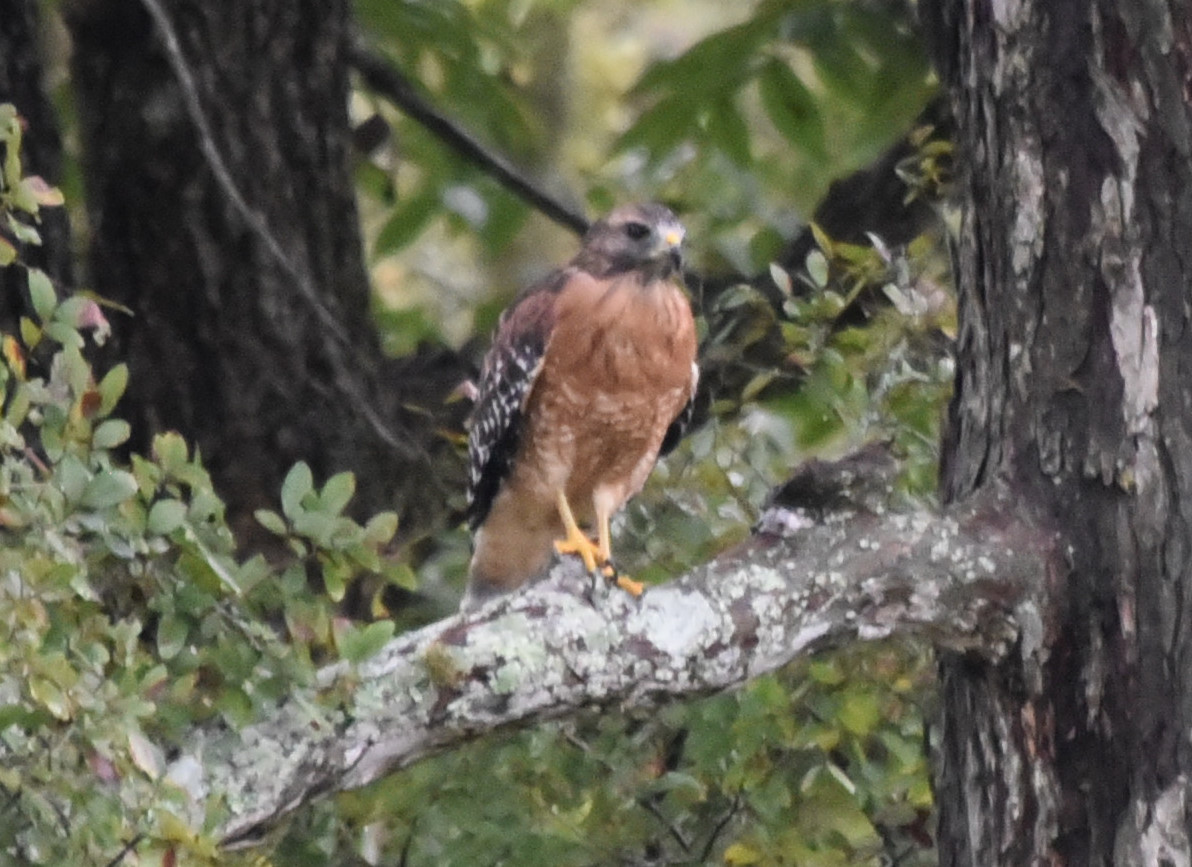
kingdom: Animalia
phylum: Chordata
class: Aves
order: Accipitriformes
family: Accipitridae
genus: Buteo
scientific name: Buteo lineatus
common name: Red-shouldered hawk
